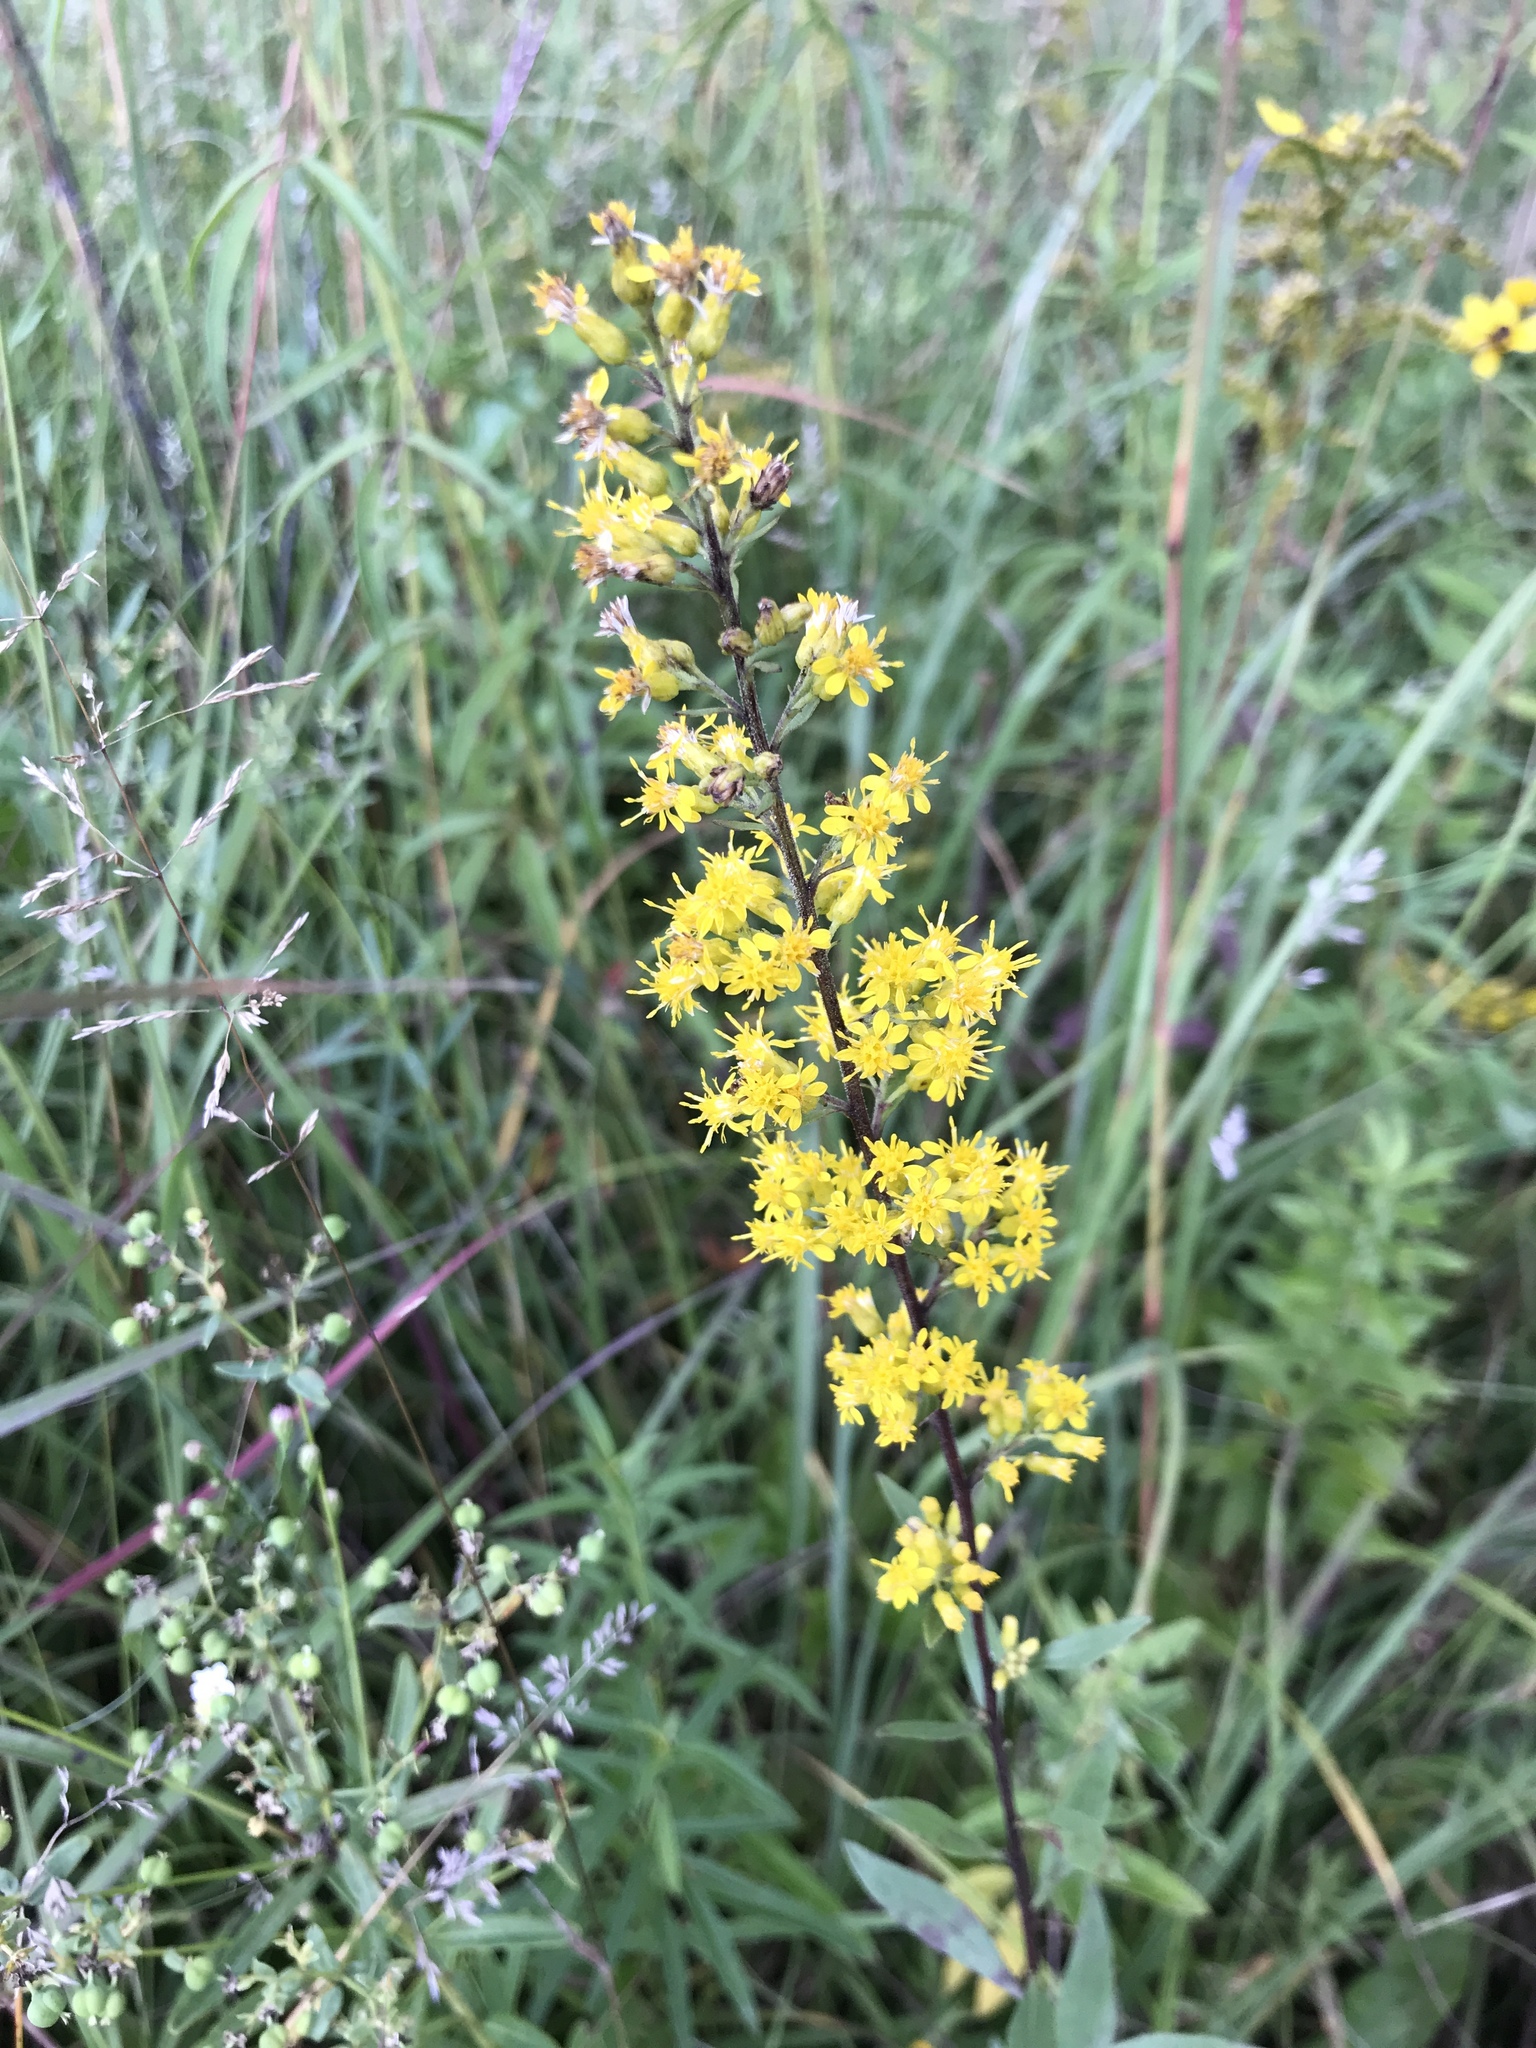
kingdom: Plantae
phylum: Tracheophyta
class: Magnoliopsida
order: Asterales
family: Asteraceae
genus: Solidago
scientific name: Solidago rigidiuscula
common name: Stiff-leaved showy goldenrod
